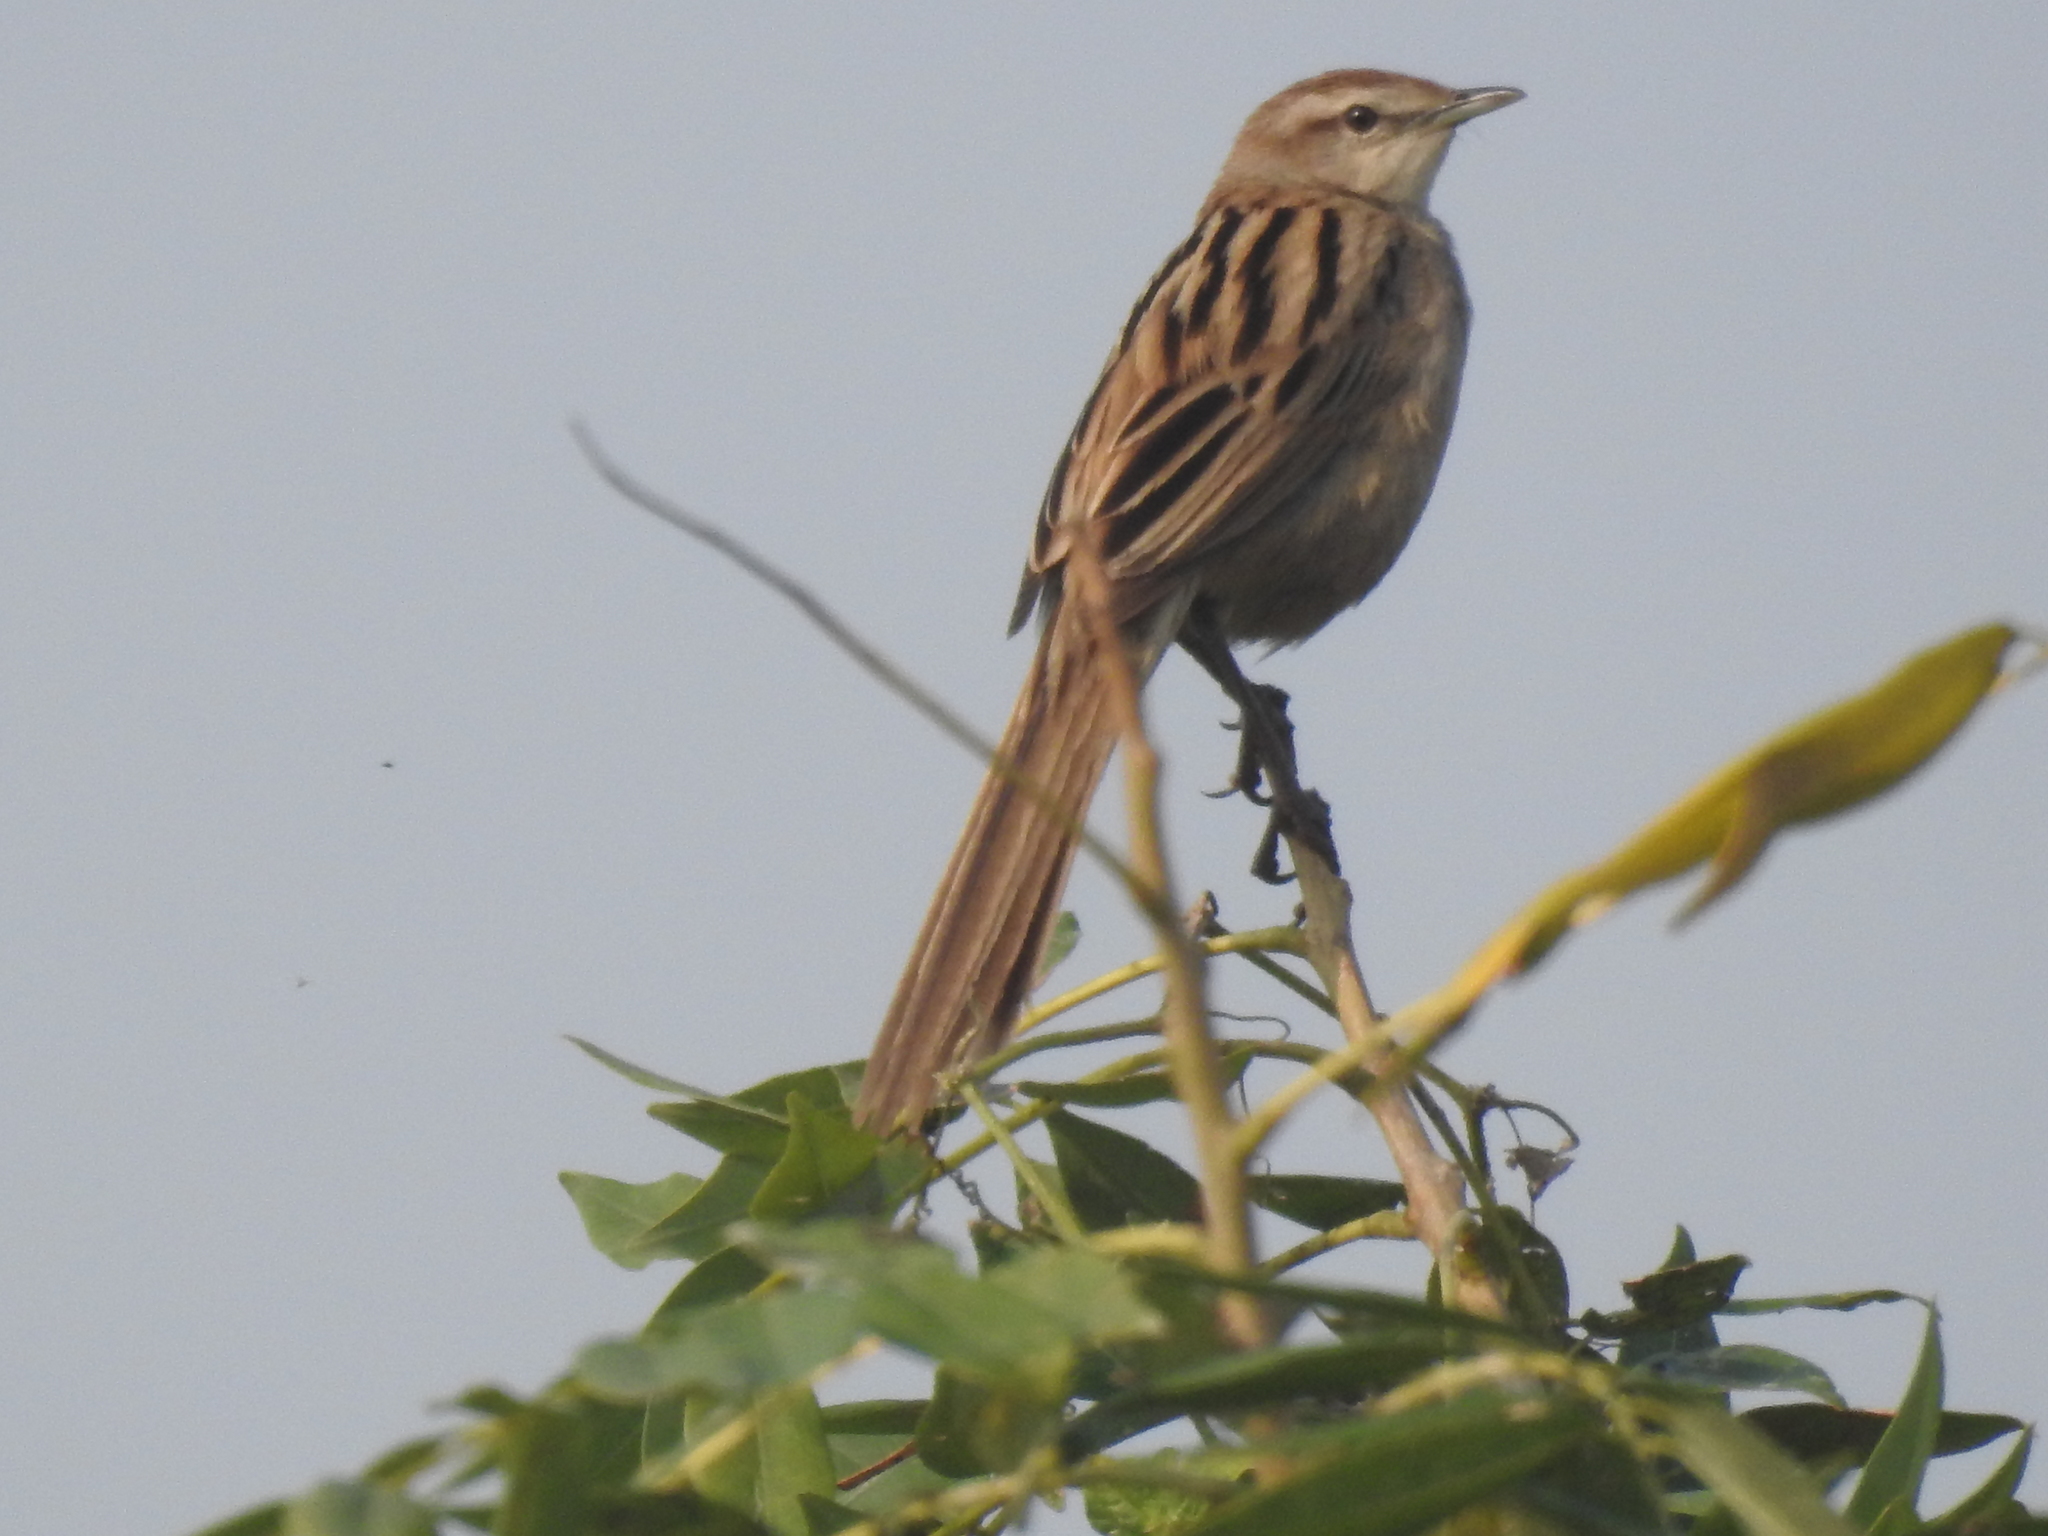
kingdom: Animalia
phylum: Chordata
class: Aves
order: Passeriformes
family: Locustellidae
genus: Megalurus
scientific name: Megalurus palustris
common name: Striated grassbird
